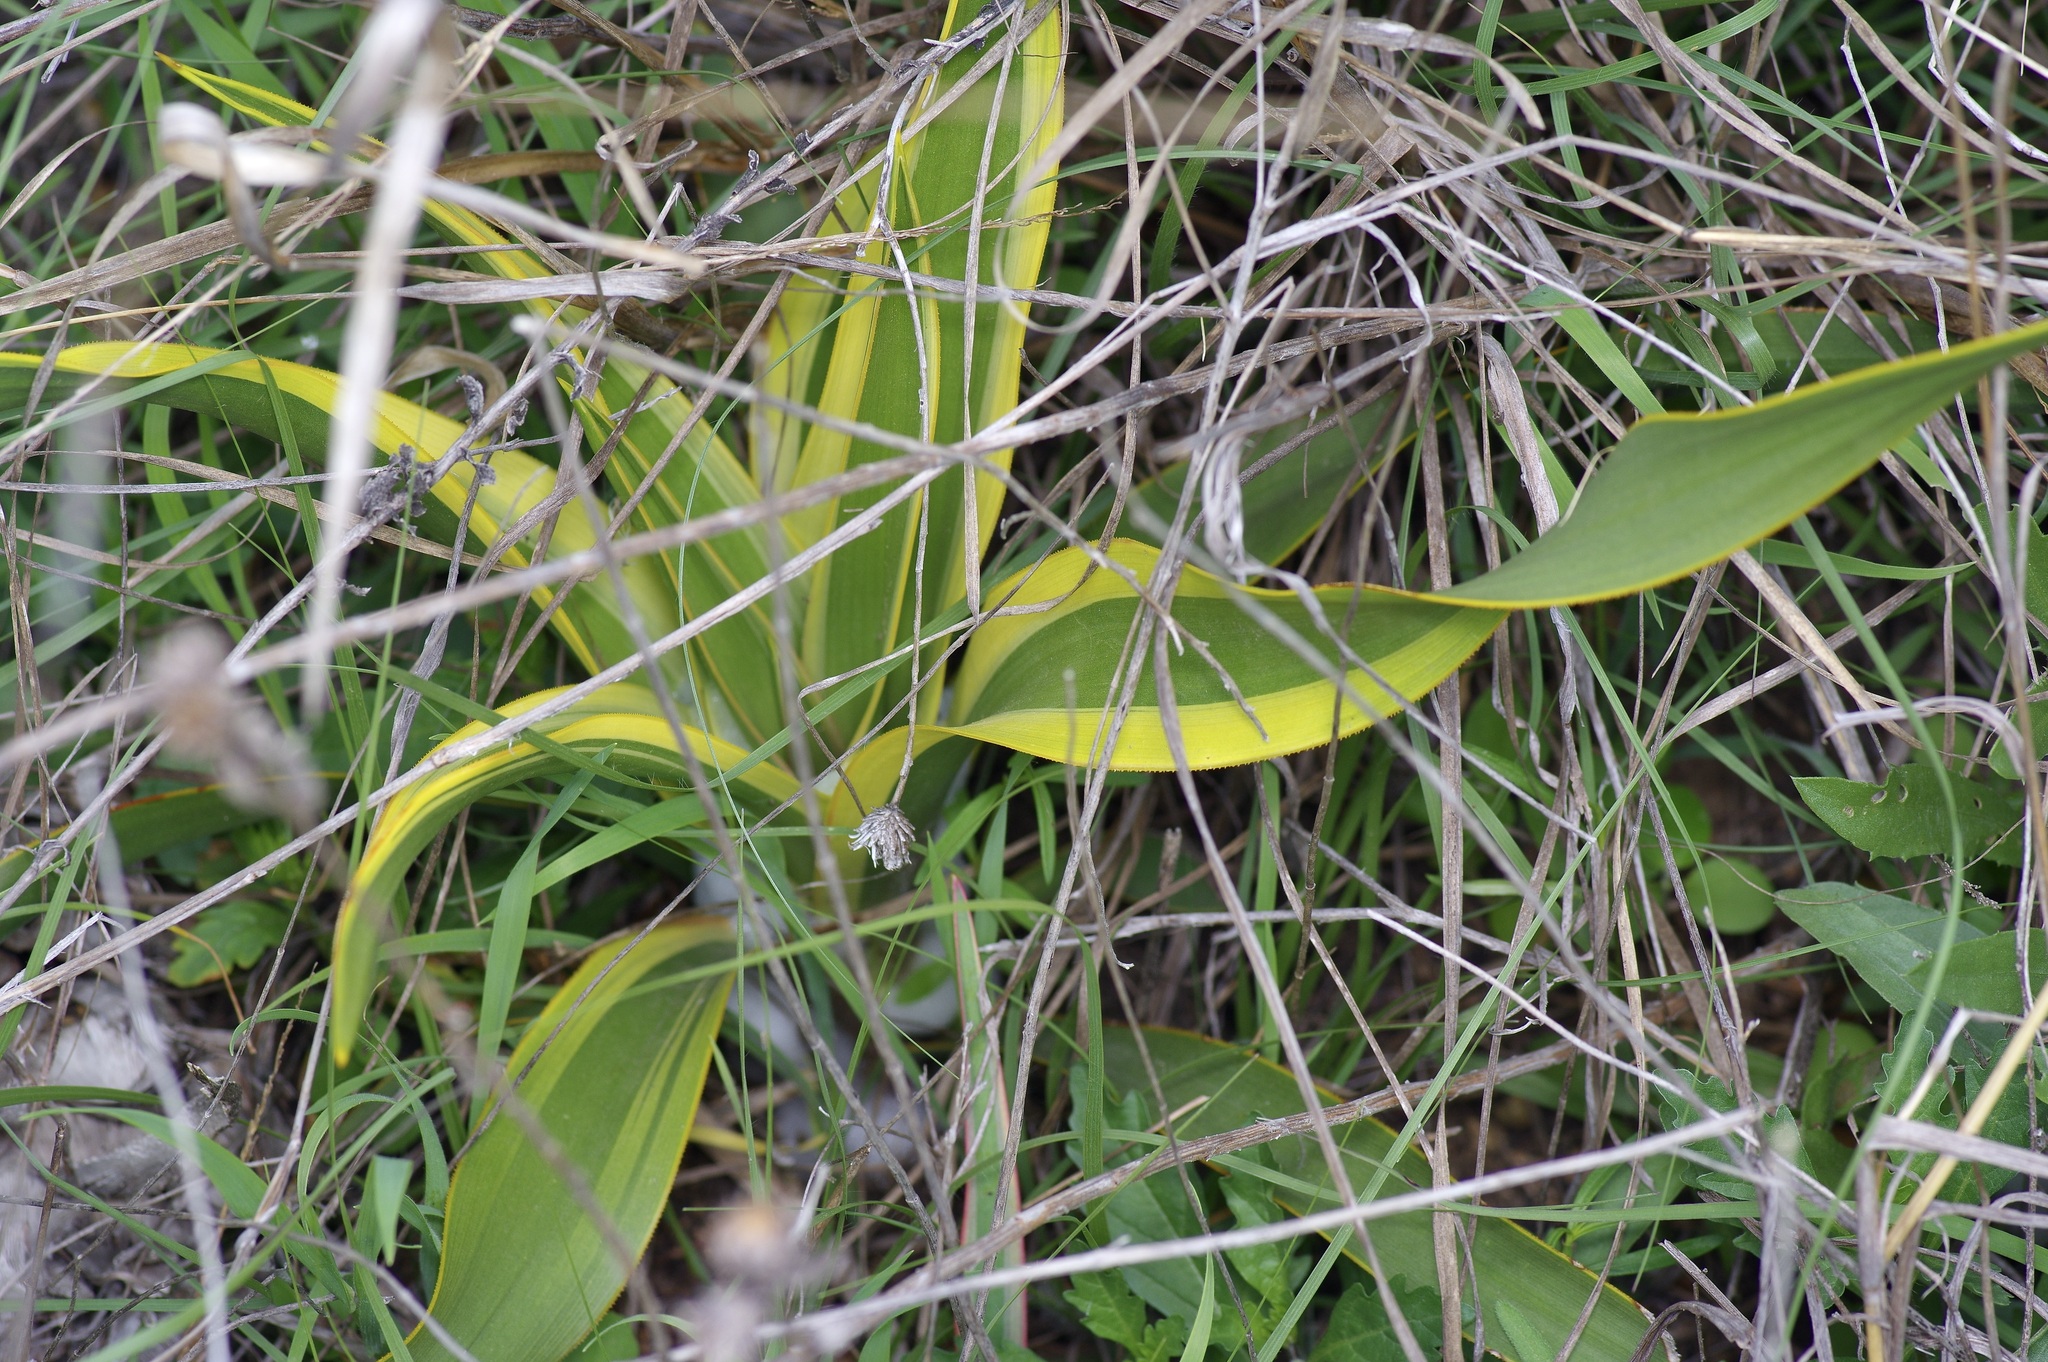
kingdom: Plantae
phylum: Tracheophyta
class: Liliopsida
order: Asparagales
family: Asparagaceae
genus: Yucca
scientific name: Yucca rupicola
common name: Twisted-leaf spanish-dagger
